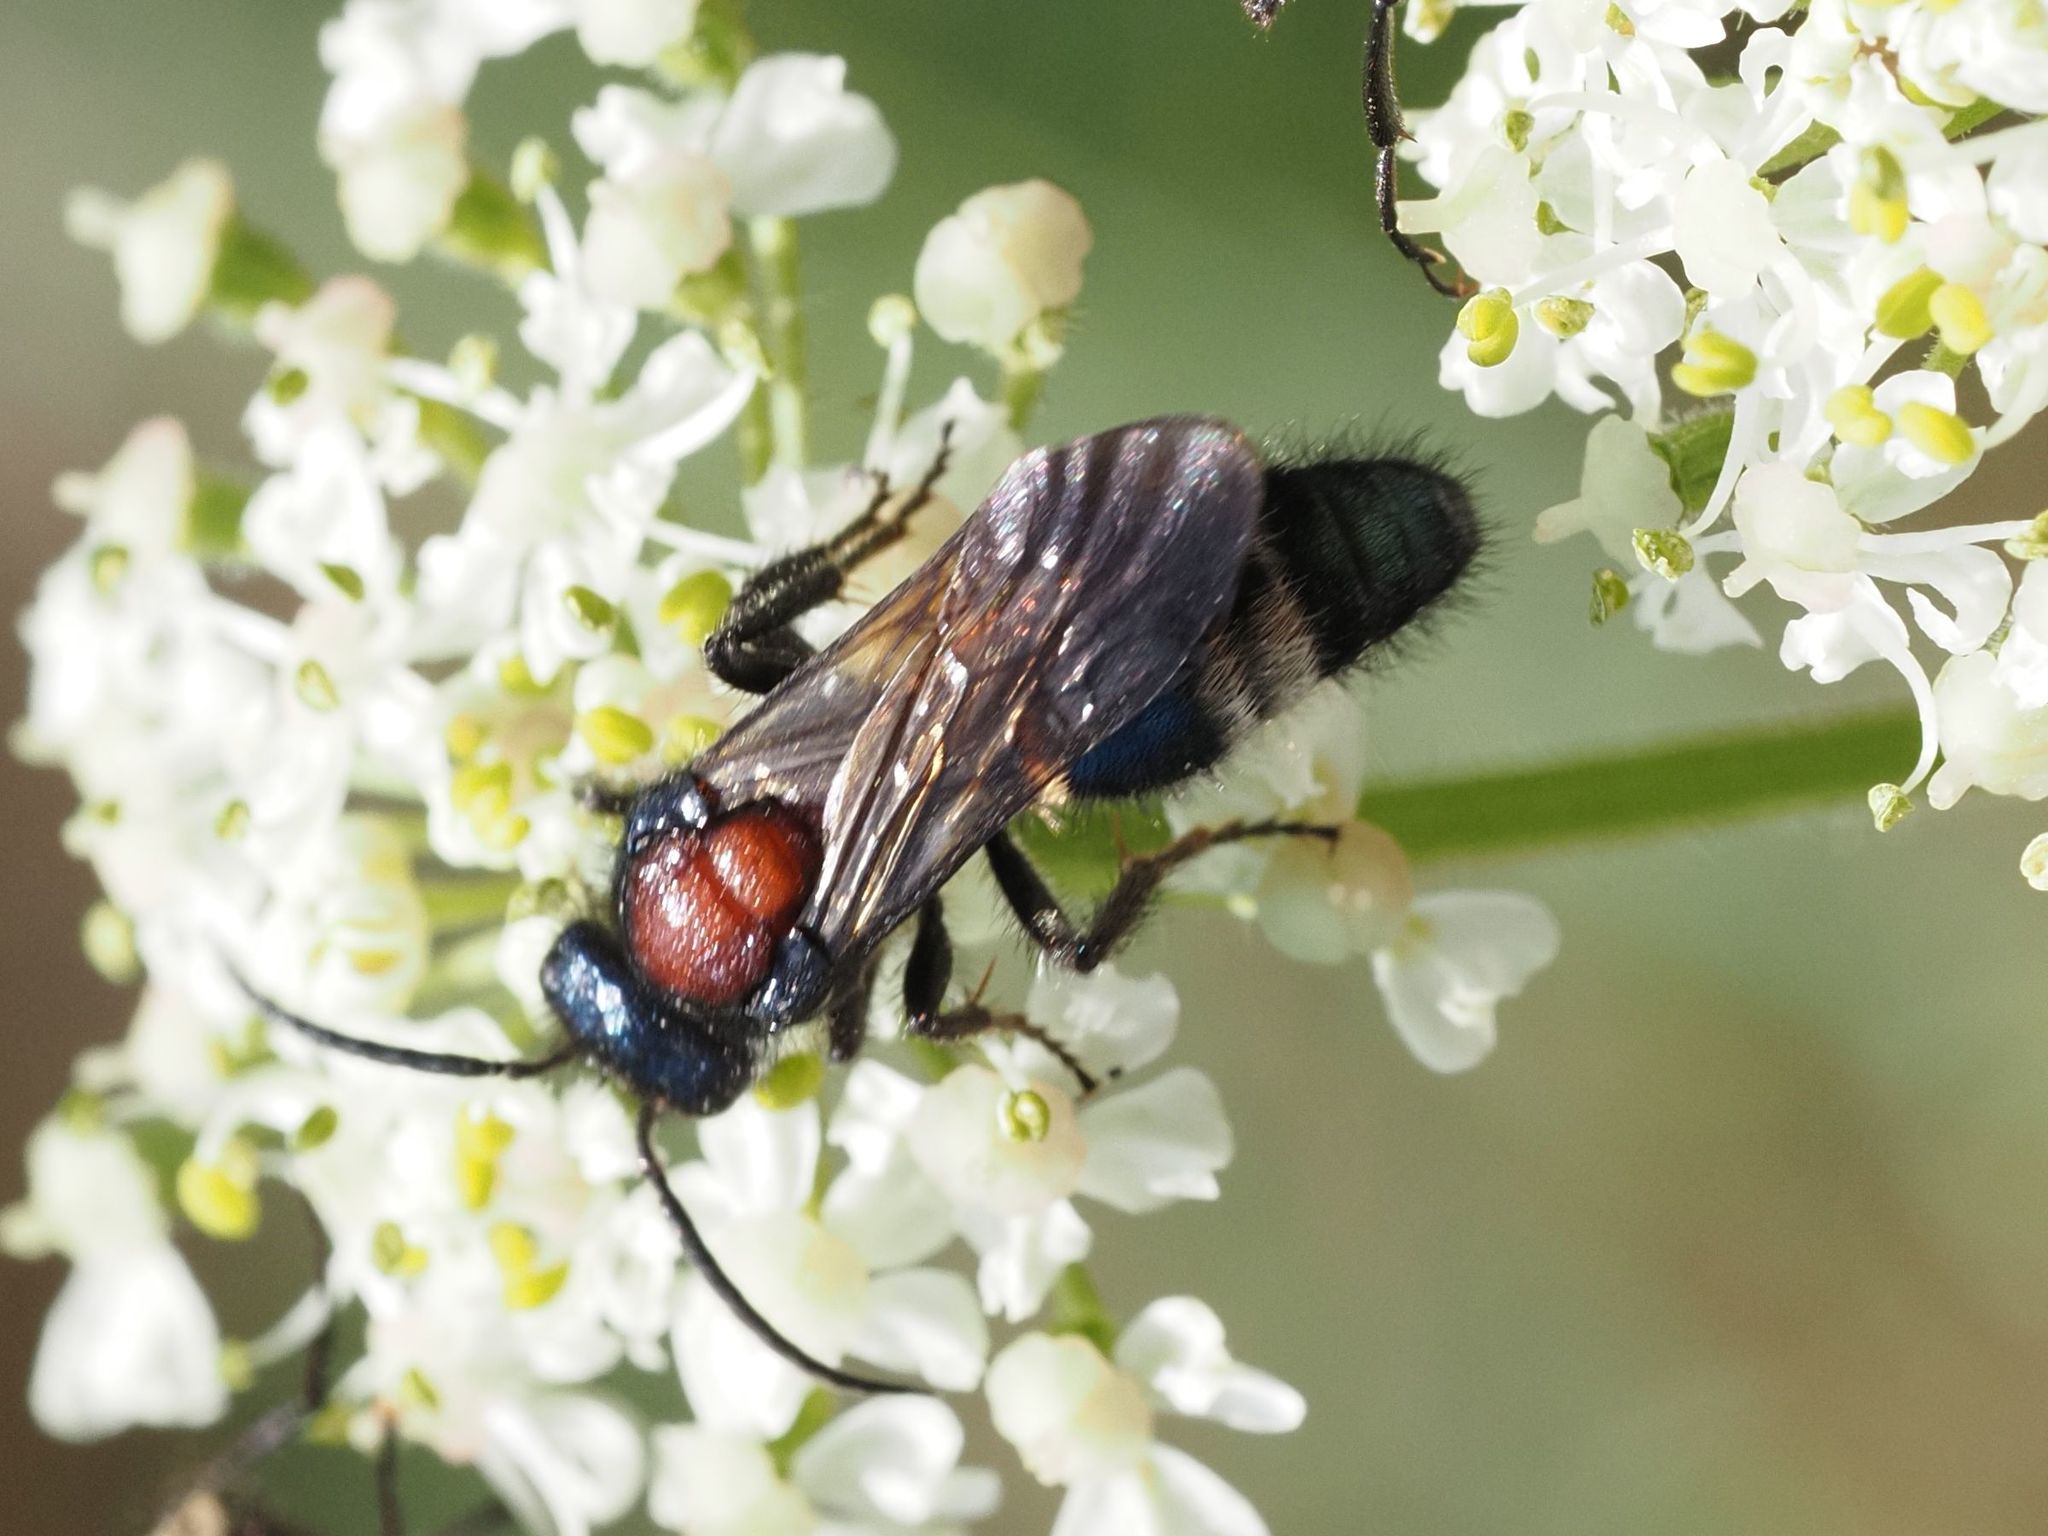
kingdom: Animalia
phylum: Arthropoda
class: Insecta
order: Hymenoptera
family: Mutillidae
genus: Mutilla
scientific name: Mutilla europaea
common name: Large velvet ant
